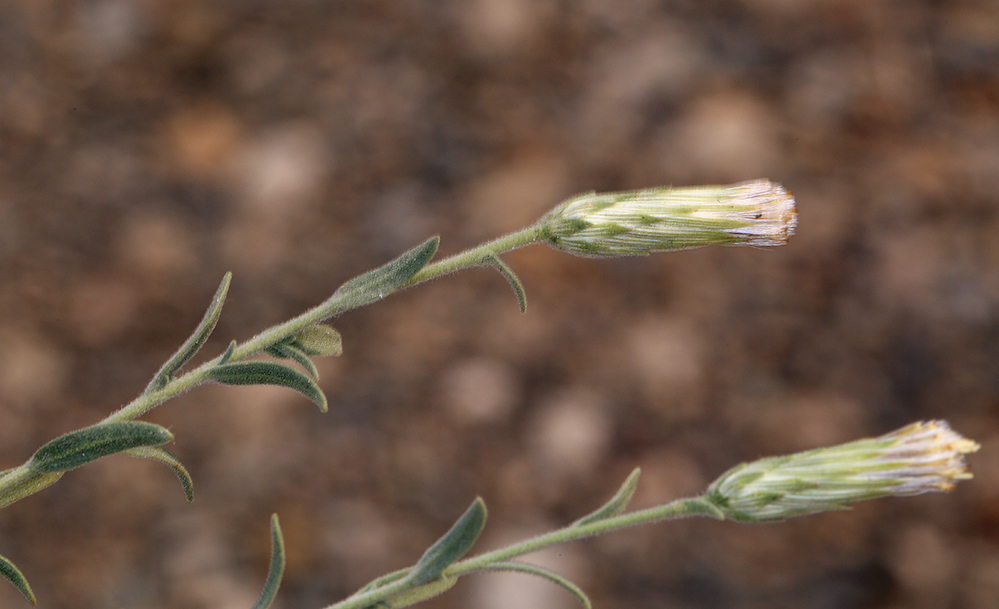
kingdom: Plantae
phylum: Tracheophyta
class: Magnoliopsida
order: Asterales
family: Asteraceae
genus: Brickellia
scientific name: Brickellia oblongifolia
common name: Mojave brickellbush
